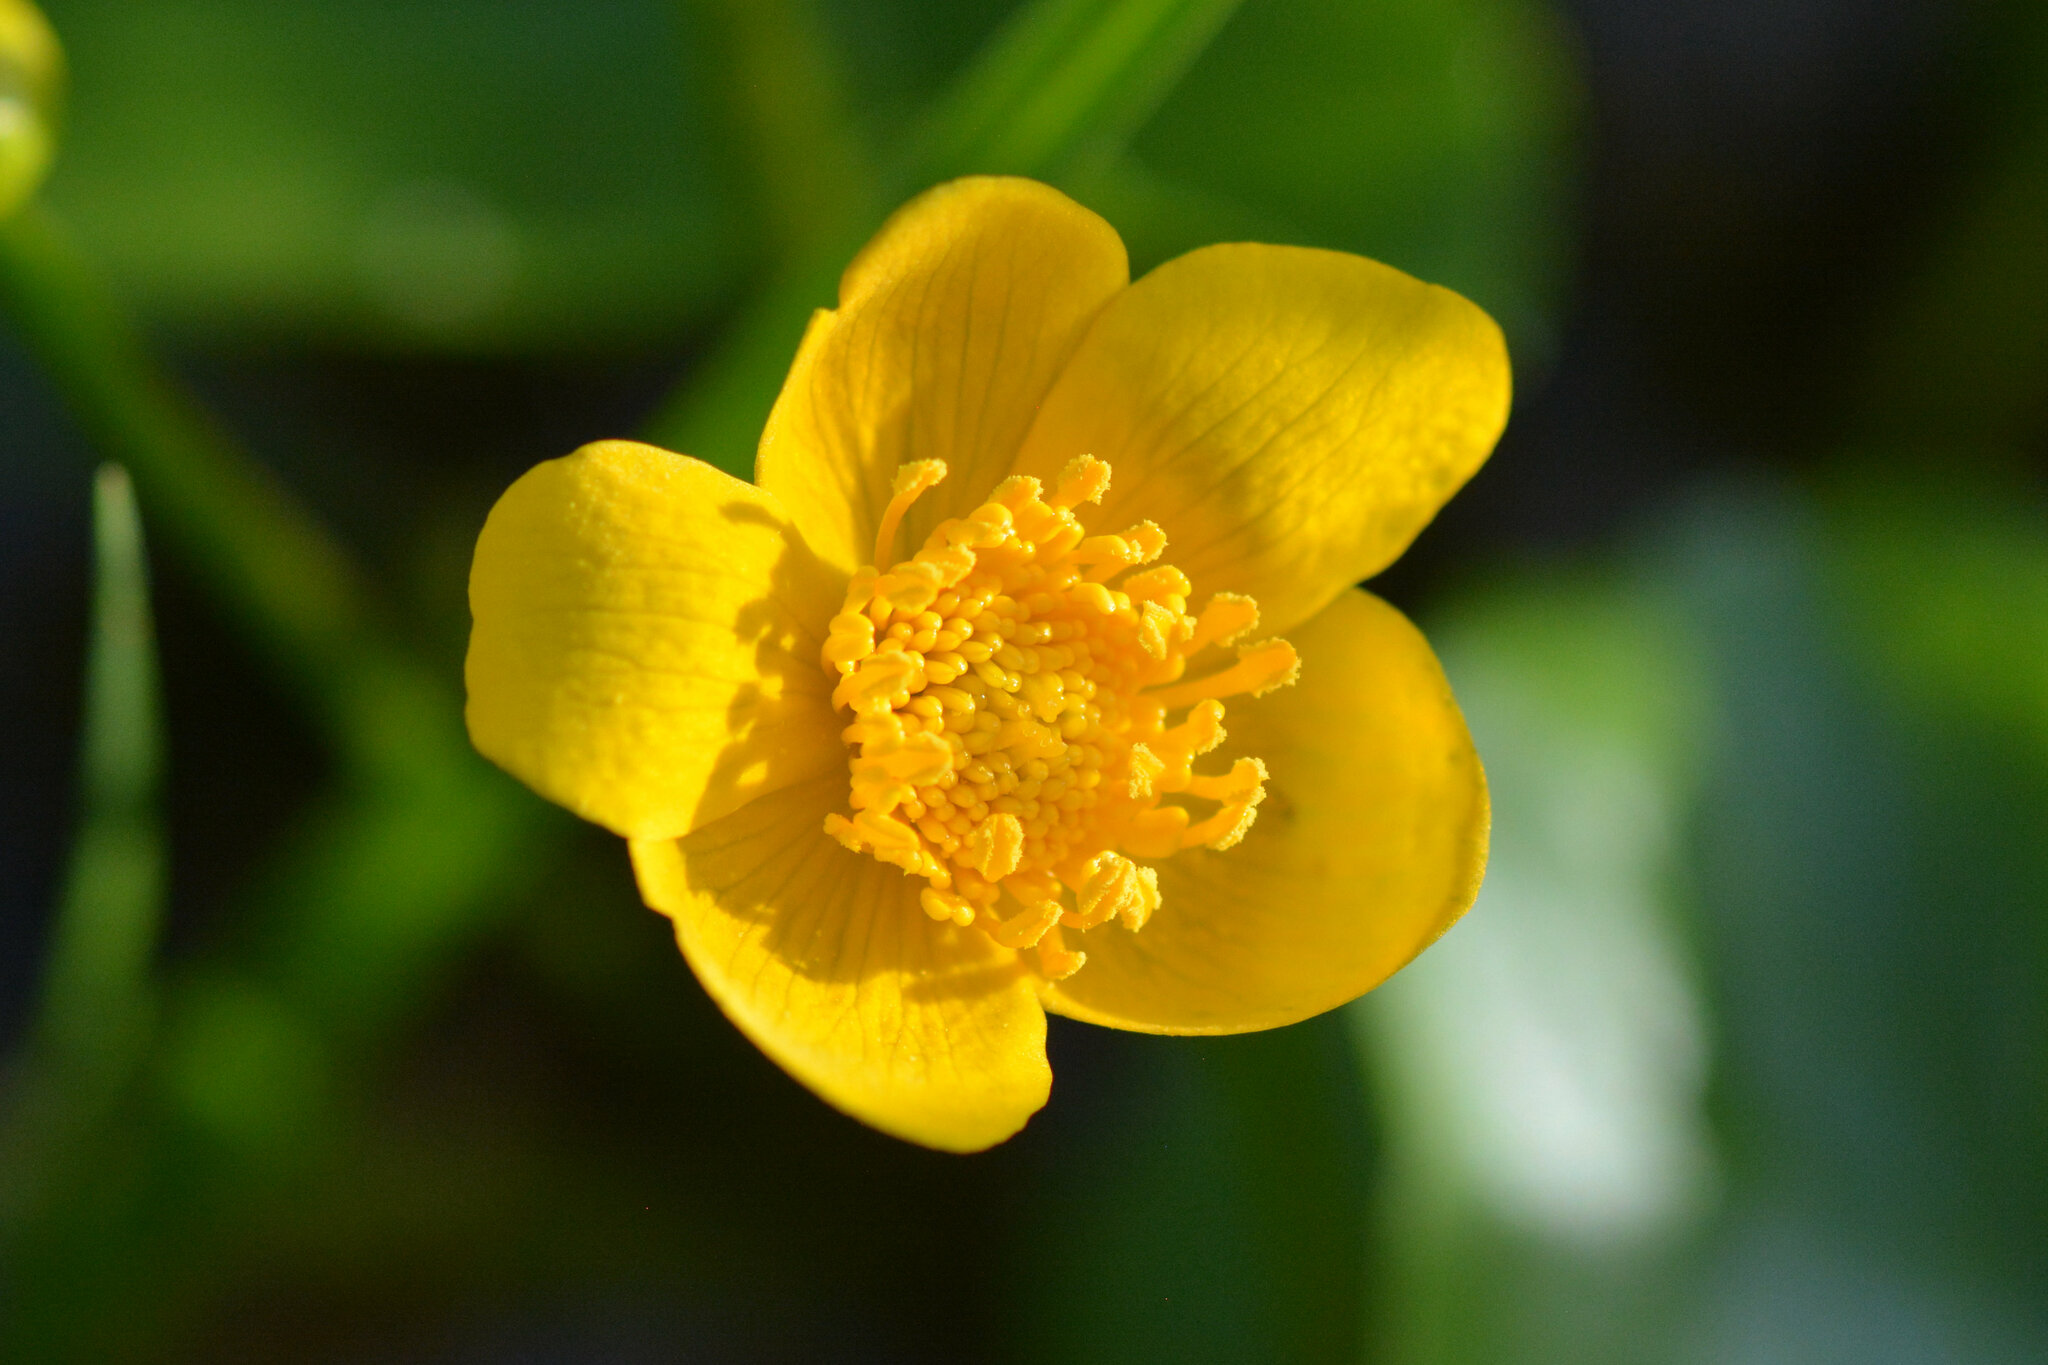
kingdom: Plantae
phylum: Tracheophyta
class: Magnoliopsida
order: Ranunculales
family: Ranunculaceae
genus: Caltha
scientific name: Caltha palustris
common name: Marsh marigold
